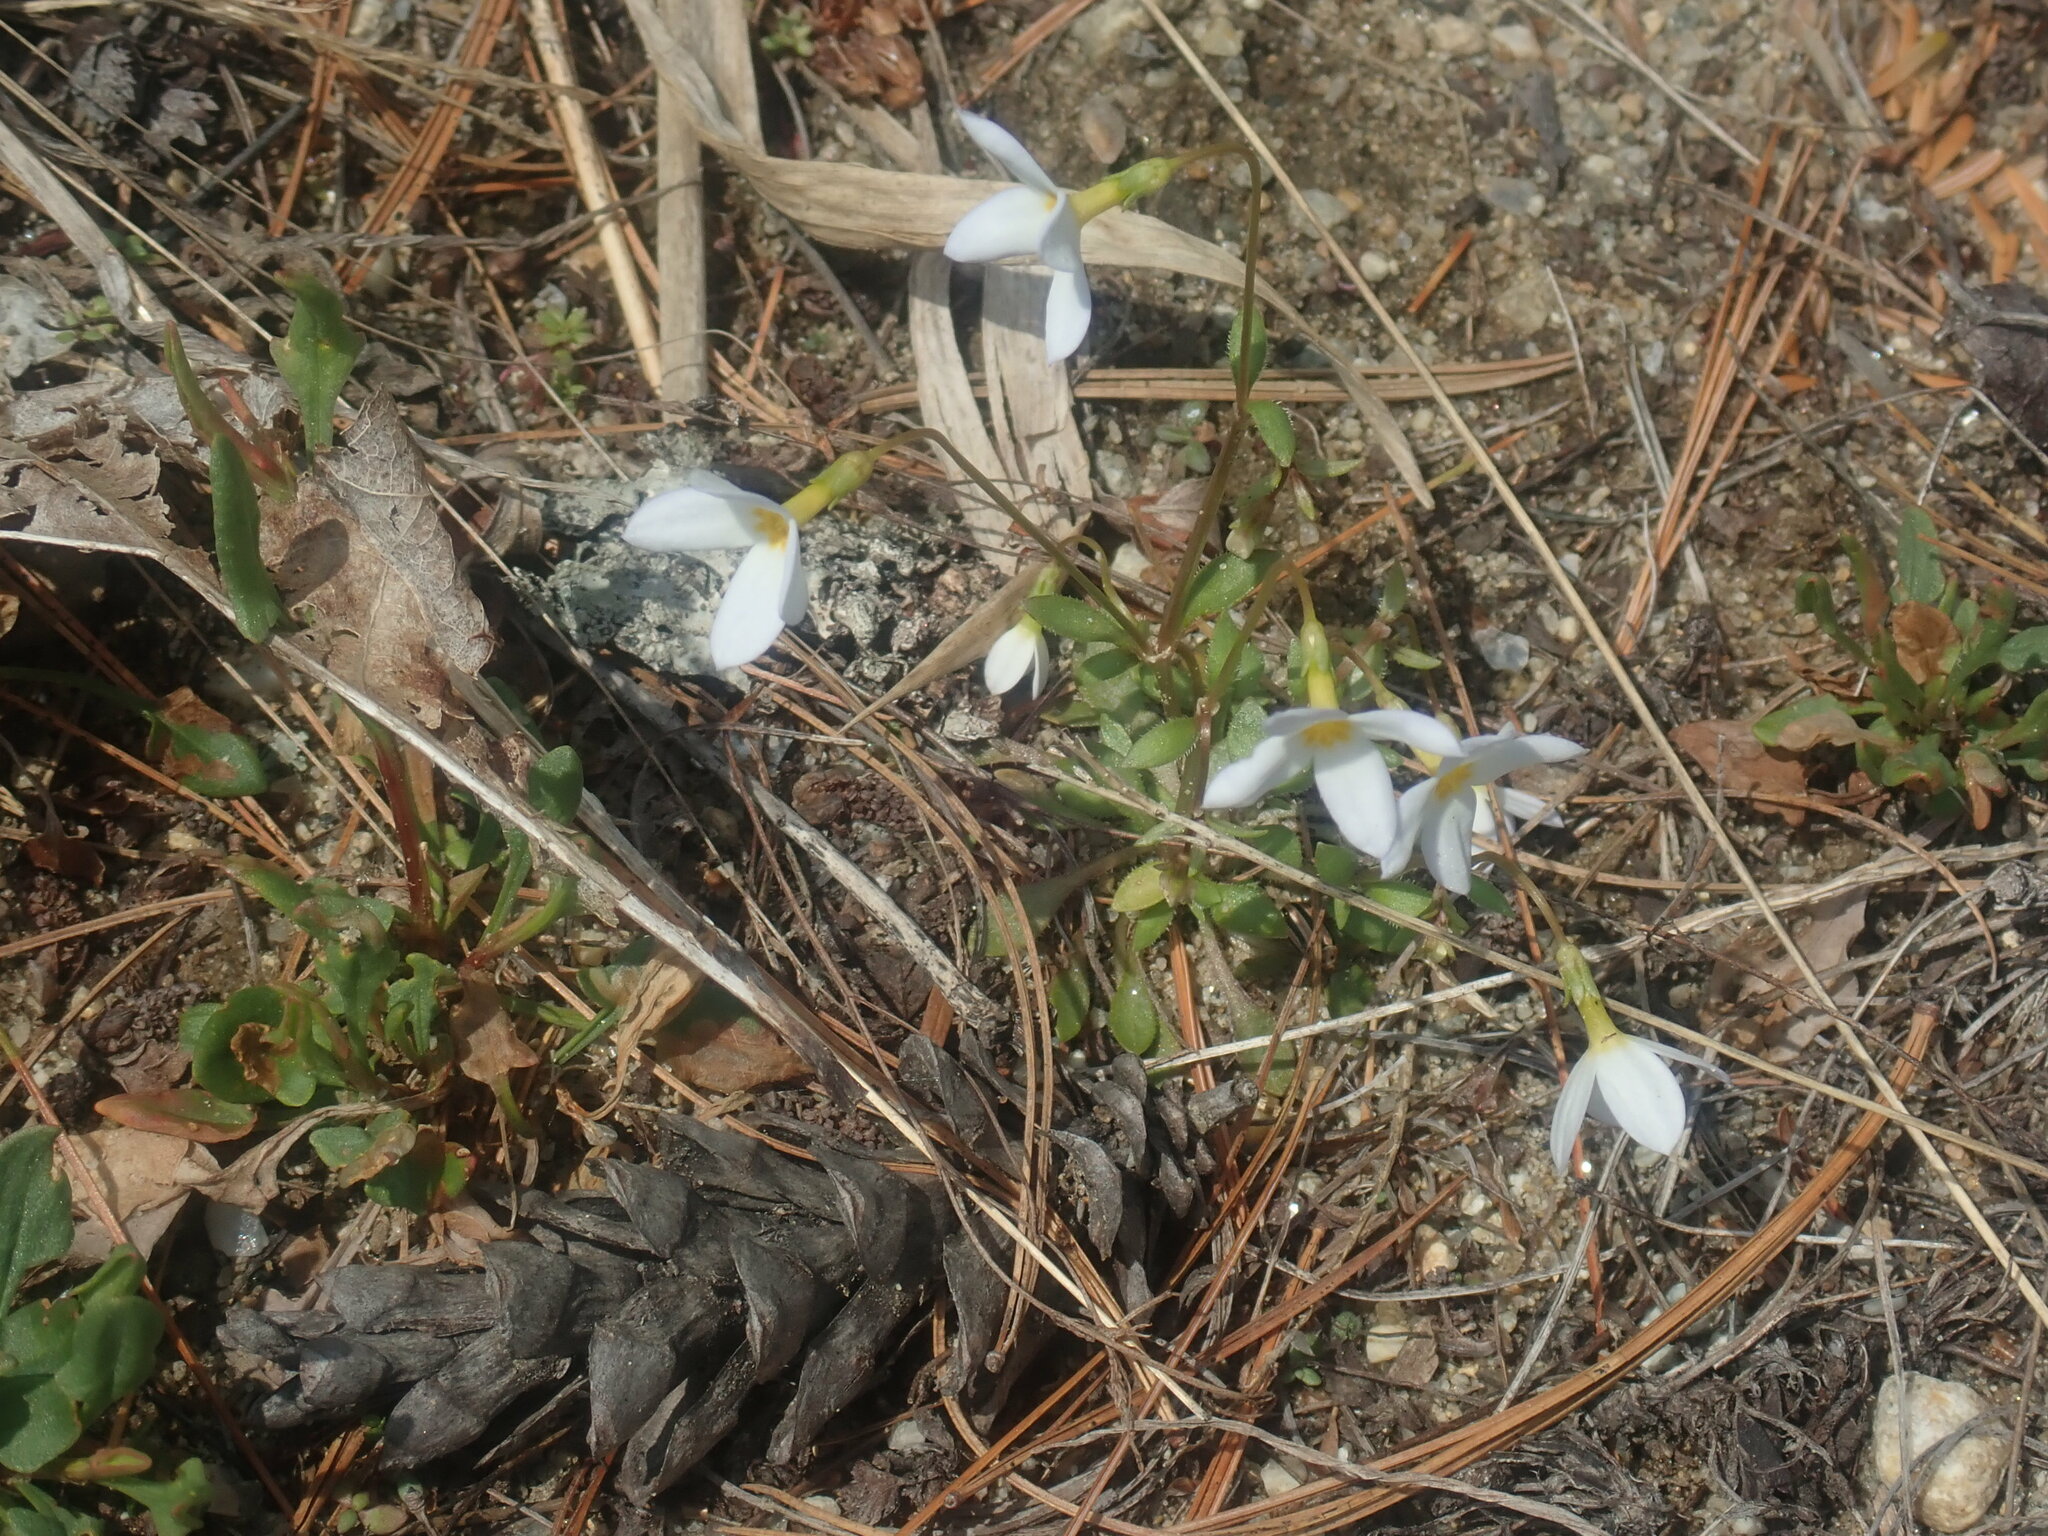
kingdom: Plantae
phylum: Tracheophyta
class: Magnoliopsida
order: Gentianales
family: Rubiaceae
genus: Houstonia
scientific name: Houstonia caerulea
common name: Bluets
